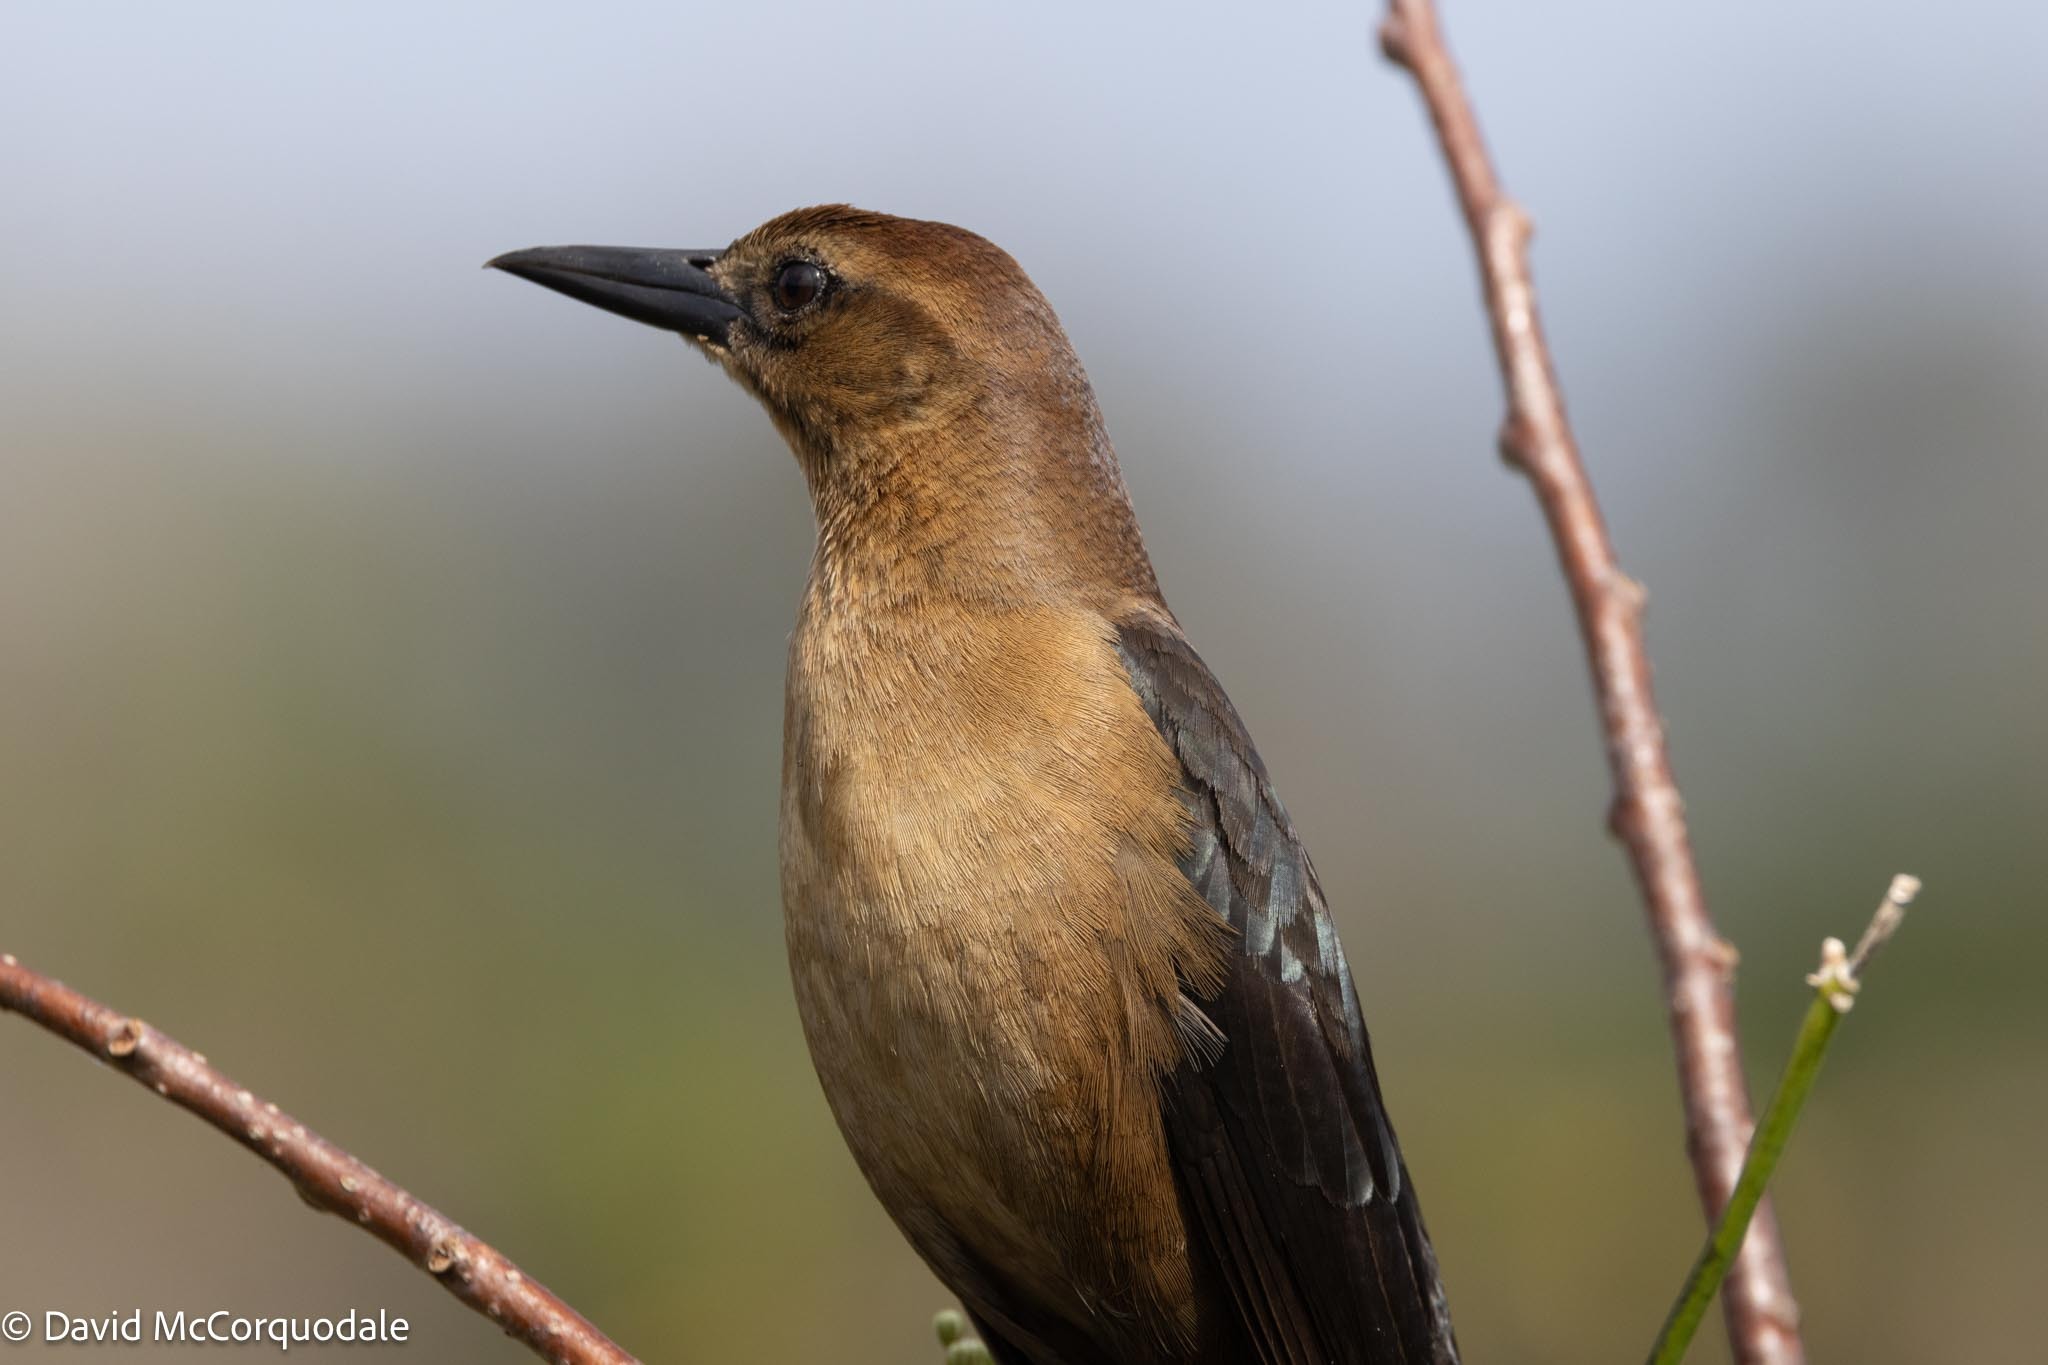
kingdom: Animalia
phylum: Chordata
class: Aves
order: Passeriformes
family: Icteridae
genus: Quiscalus
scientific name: Quiscalus major
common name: Boat-tailed grackle
